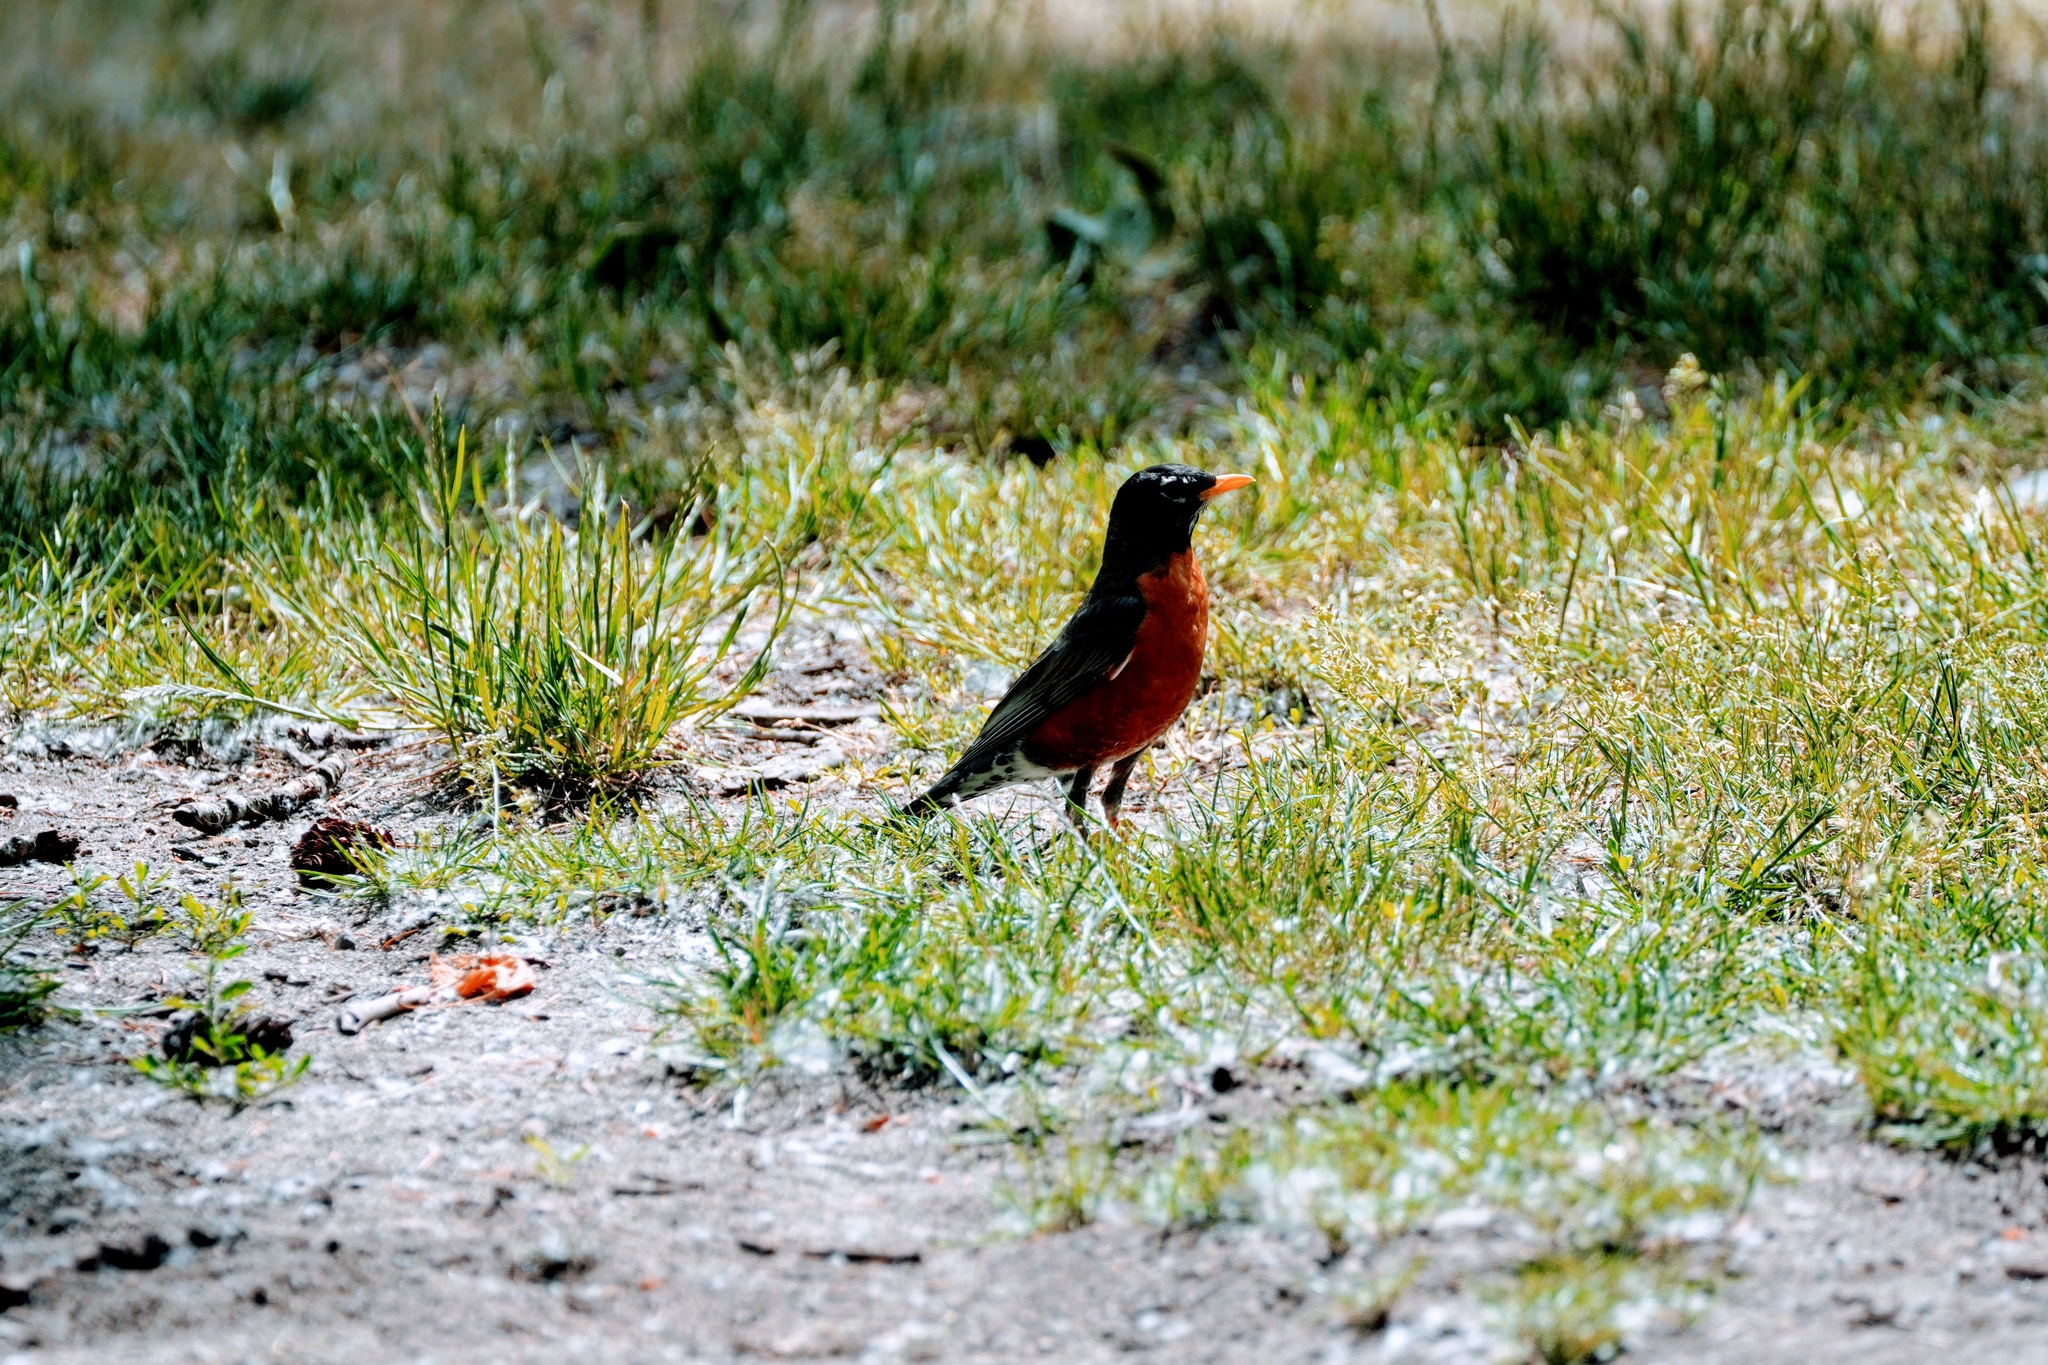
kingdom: Animalia
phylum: Chordata
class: Aves
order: Passeriformes
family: Turdidae
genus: Turdus
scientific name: Turdus migratorius
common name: American robin
